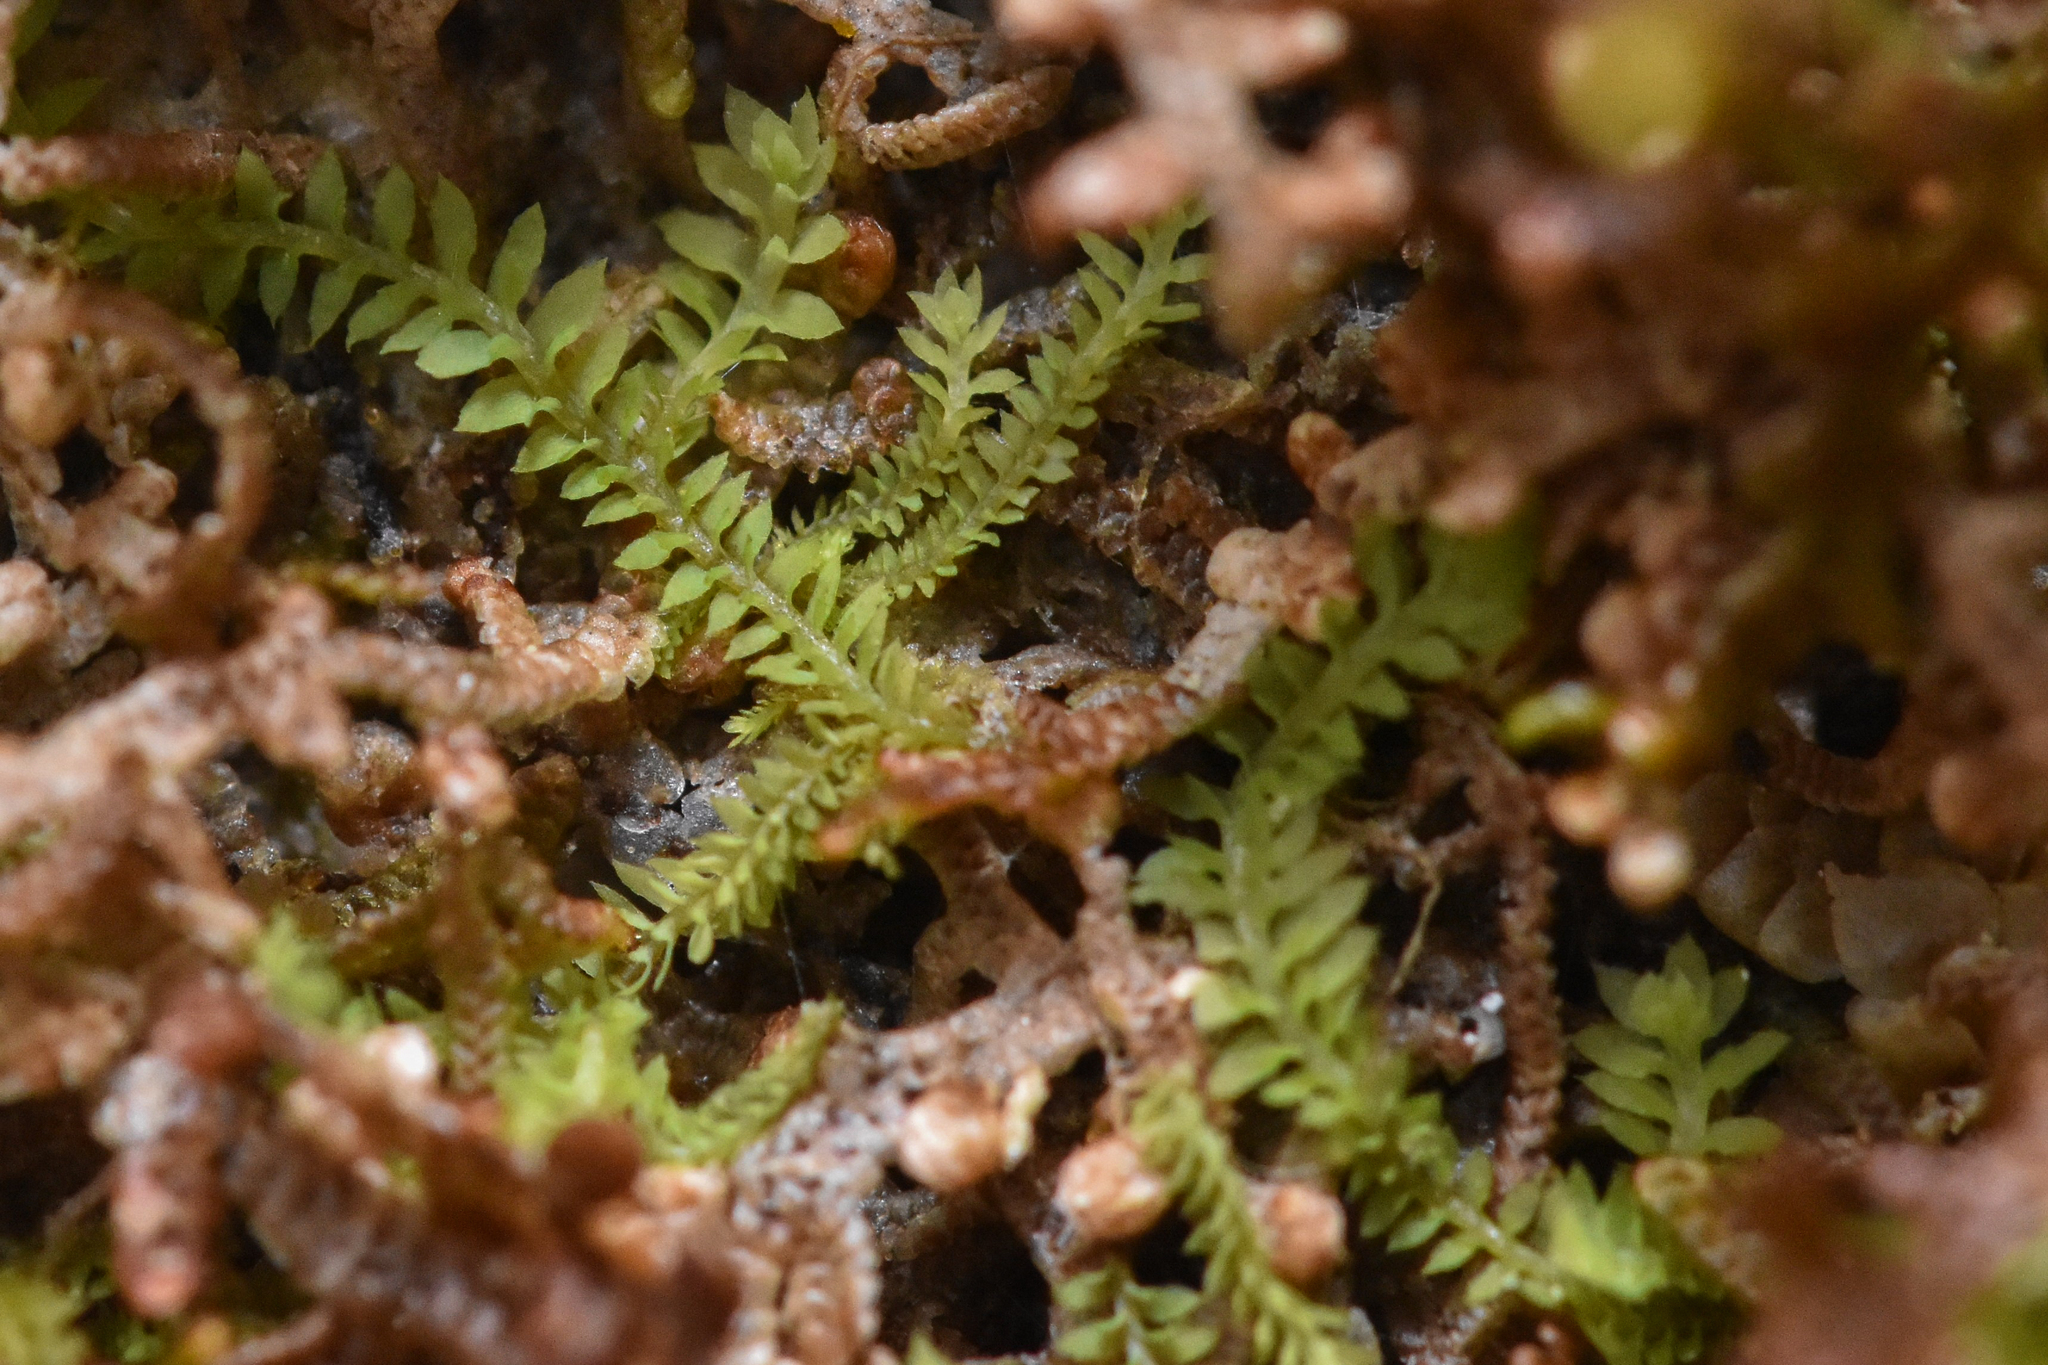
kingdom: Plantae
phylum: Marchantiophyta
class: Jungermanniopsida
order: Jungermanniales
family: Scapaniaceae
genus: Douinia
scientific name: Douinia ovata
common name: Waxy earwort
